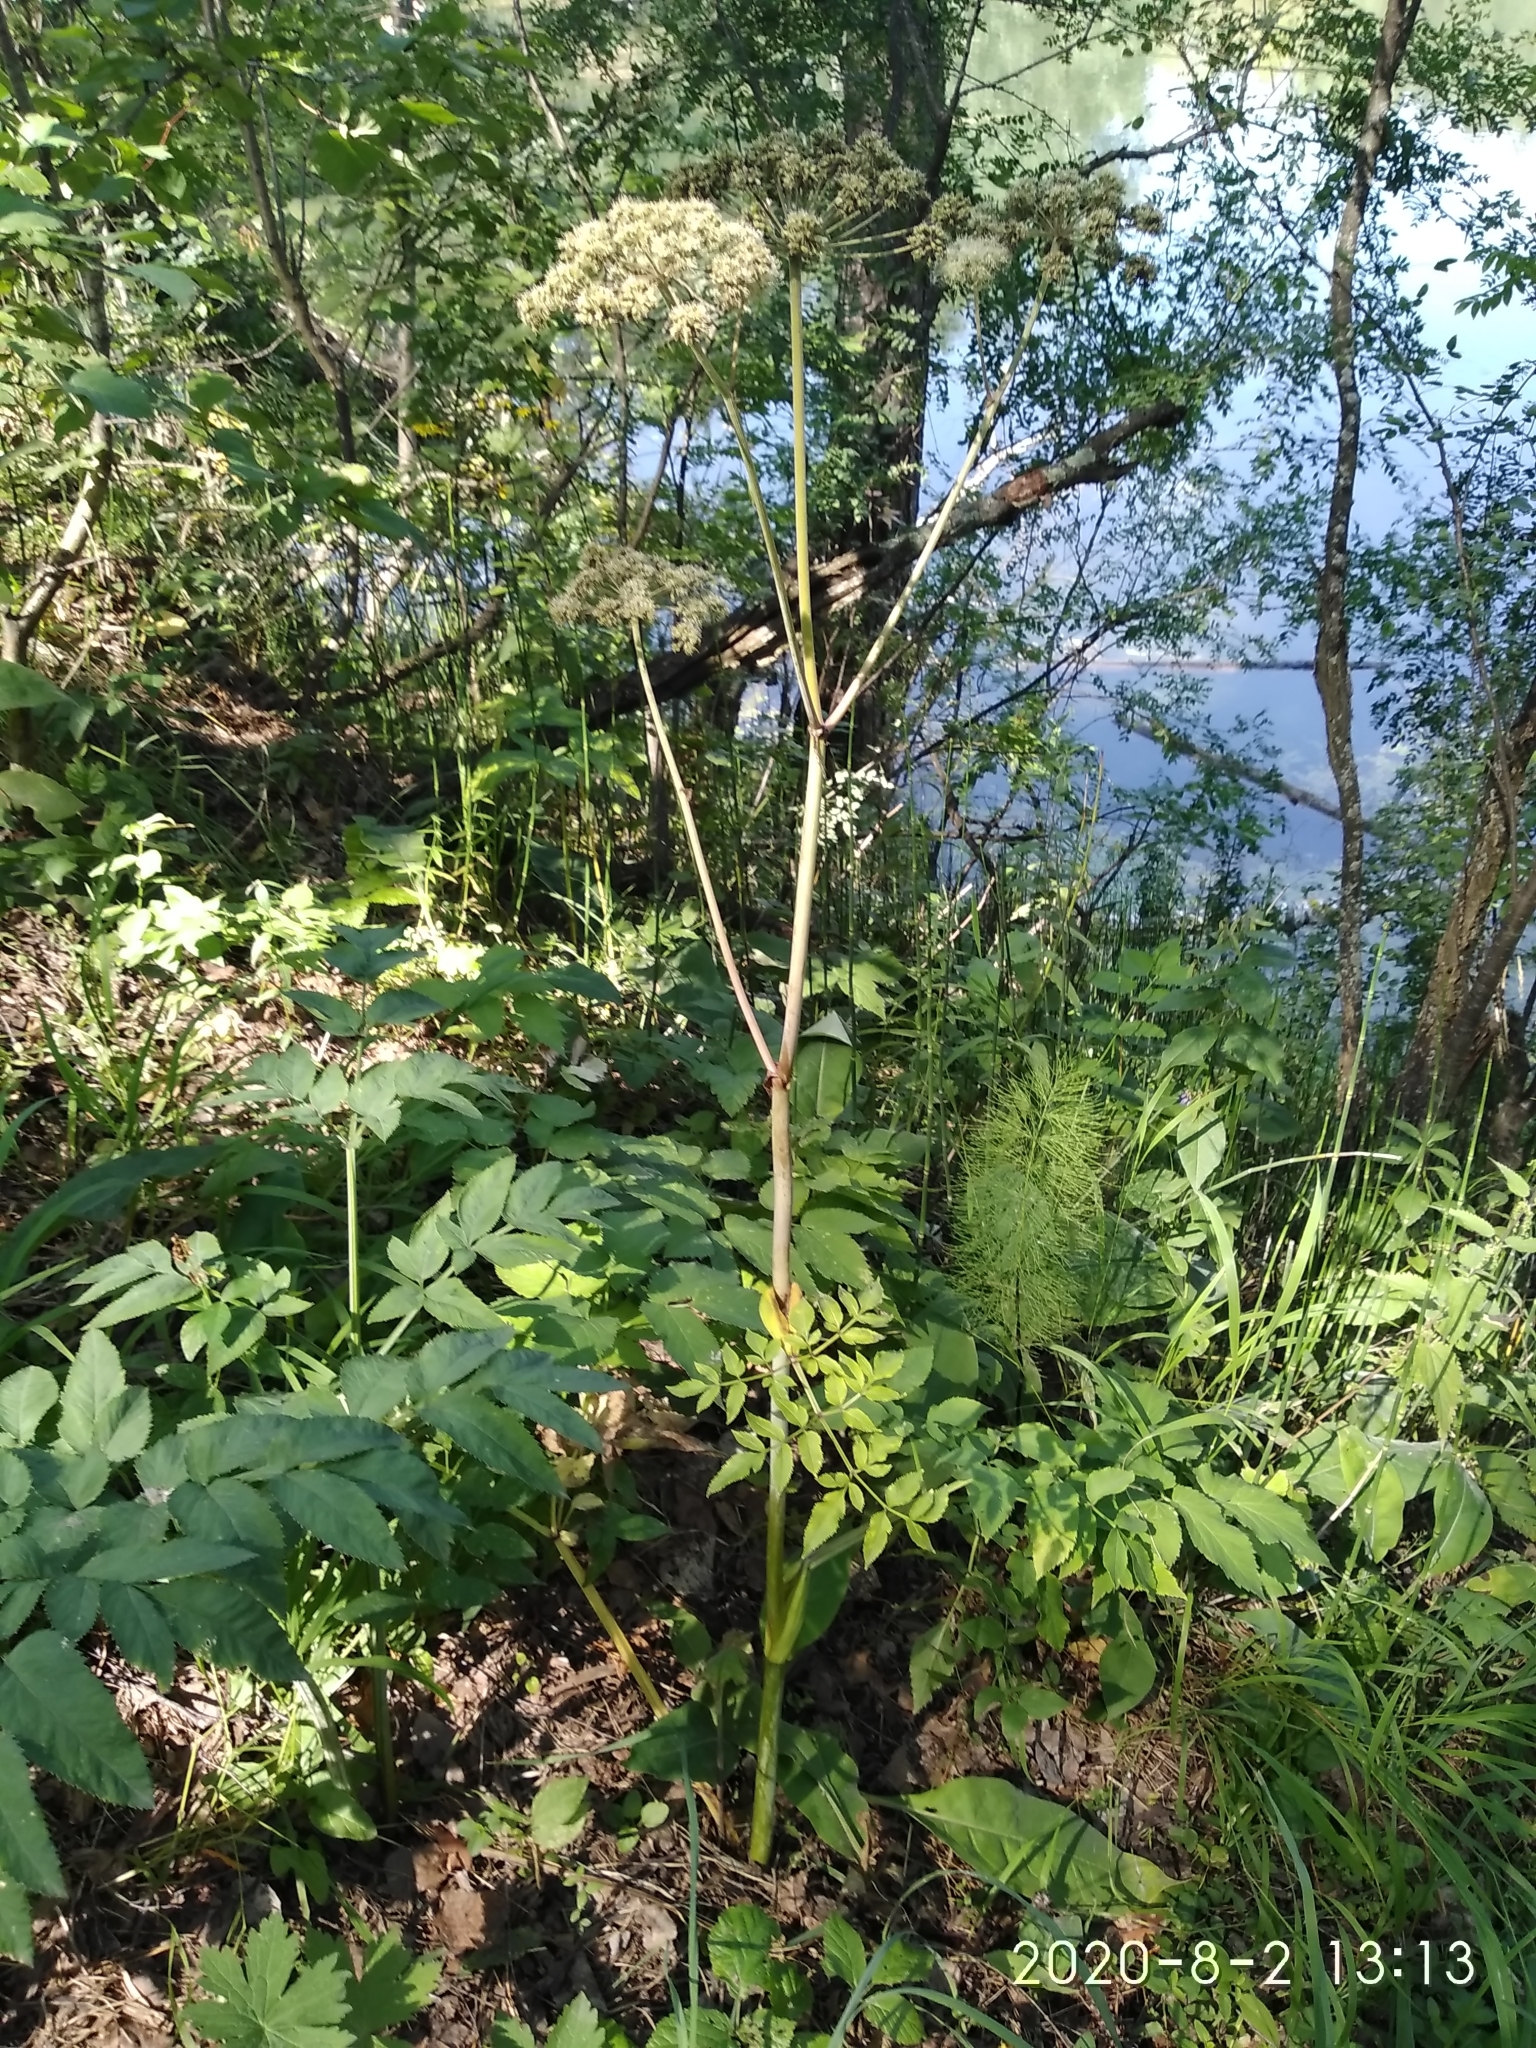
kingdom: Plantae
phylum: Tracheophyta
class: Magnoliopsida
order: Apiales
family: Apiaceae
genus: Angelica
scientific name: Angelica sylvestris
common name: Wild angelica
